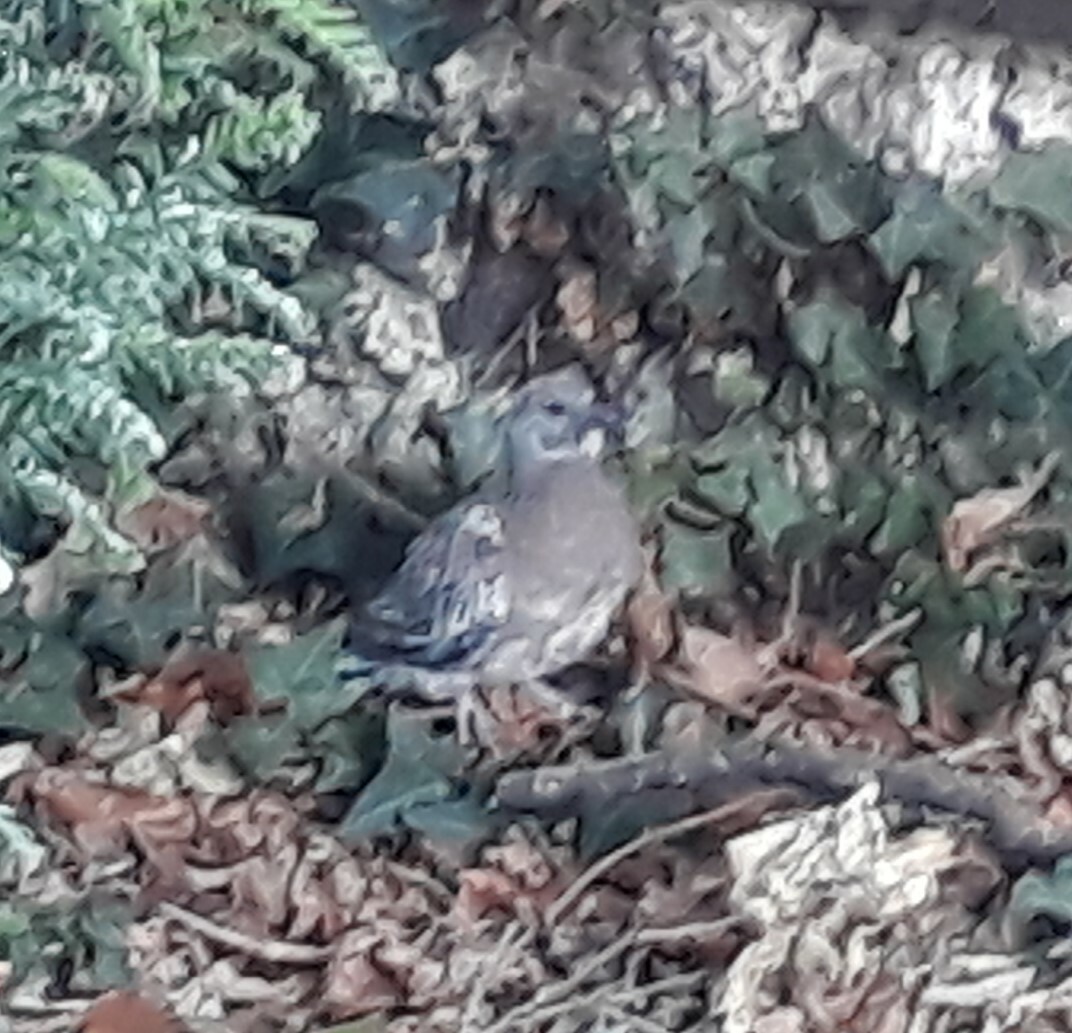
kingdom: Animalia
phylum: Chordata
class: Aves
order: Columbiformes
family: Columbidae
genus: Columba
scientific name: Columba palumbus
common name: Common wood pigeon
